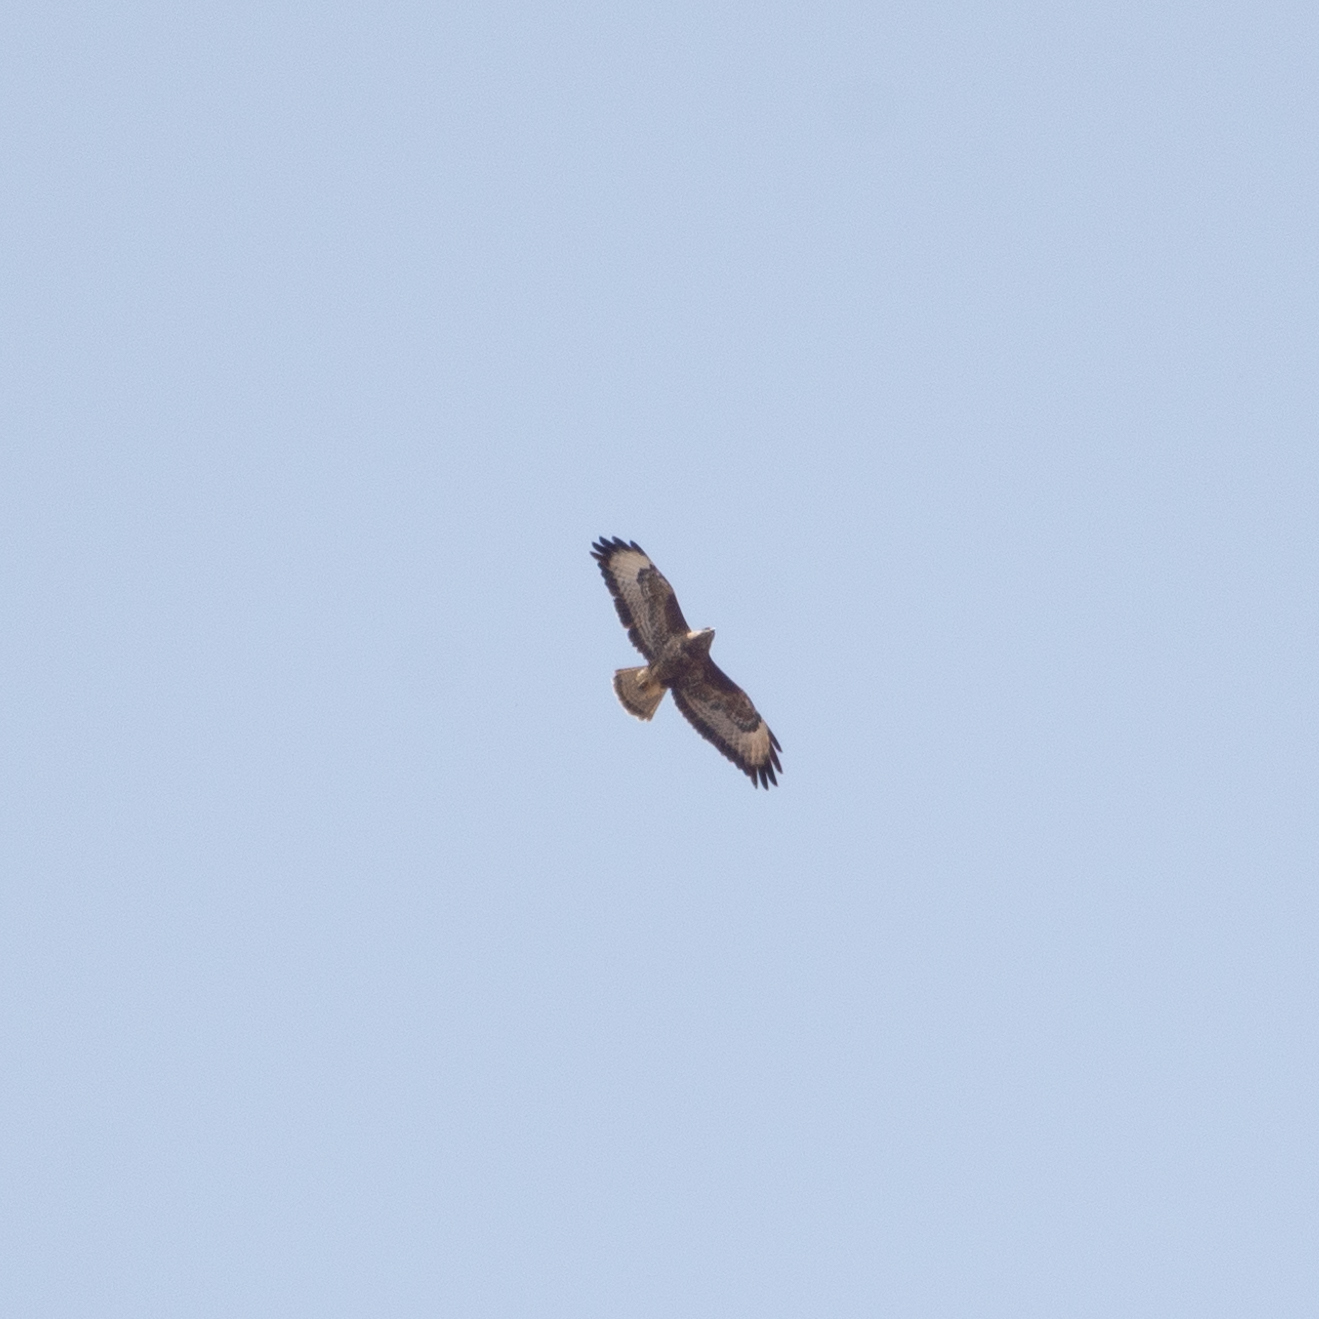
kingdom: Animalia
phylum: Chordata
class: Aves
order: Accipitriformes
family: Accipitridae
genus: Buteo
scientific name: Buteo buteo
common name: Common buzzard
